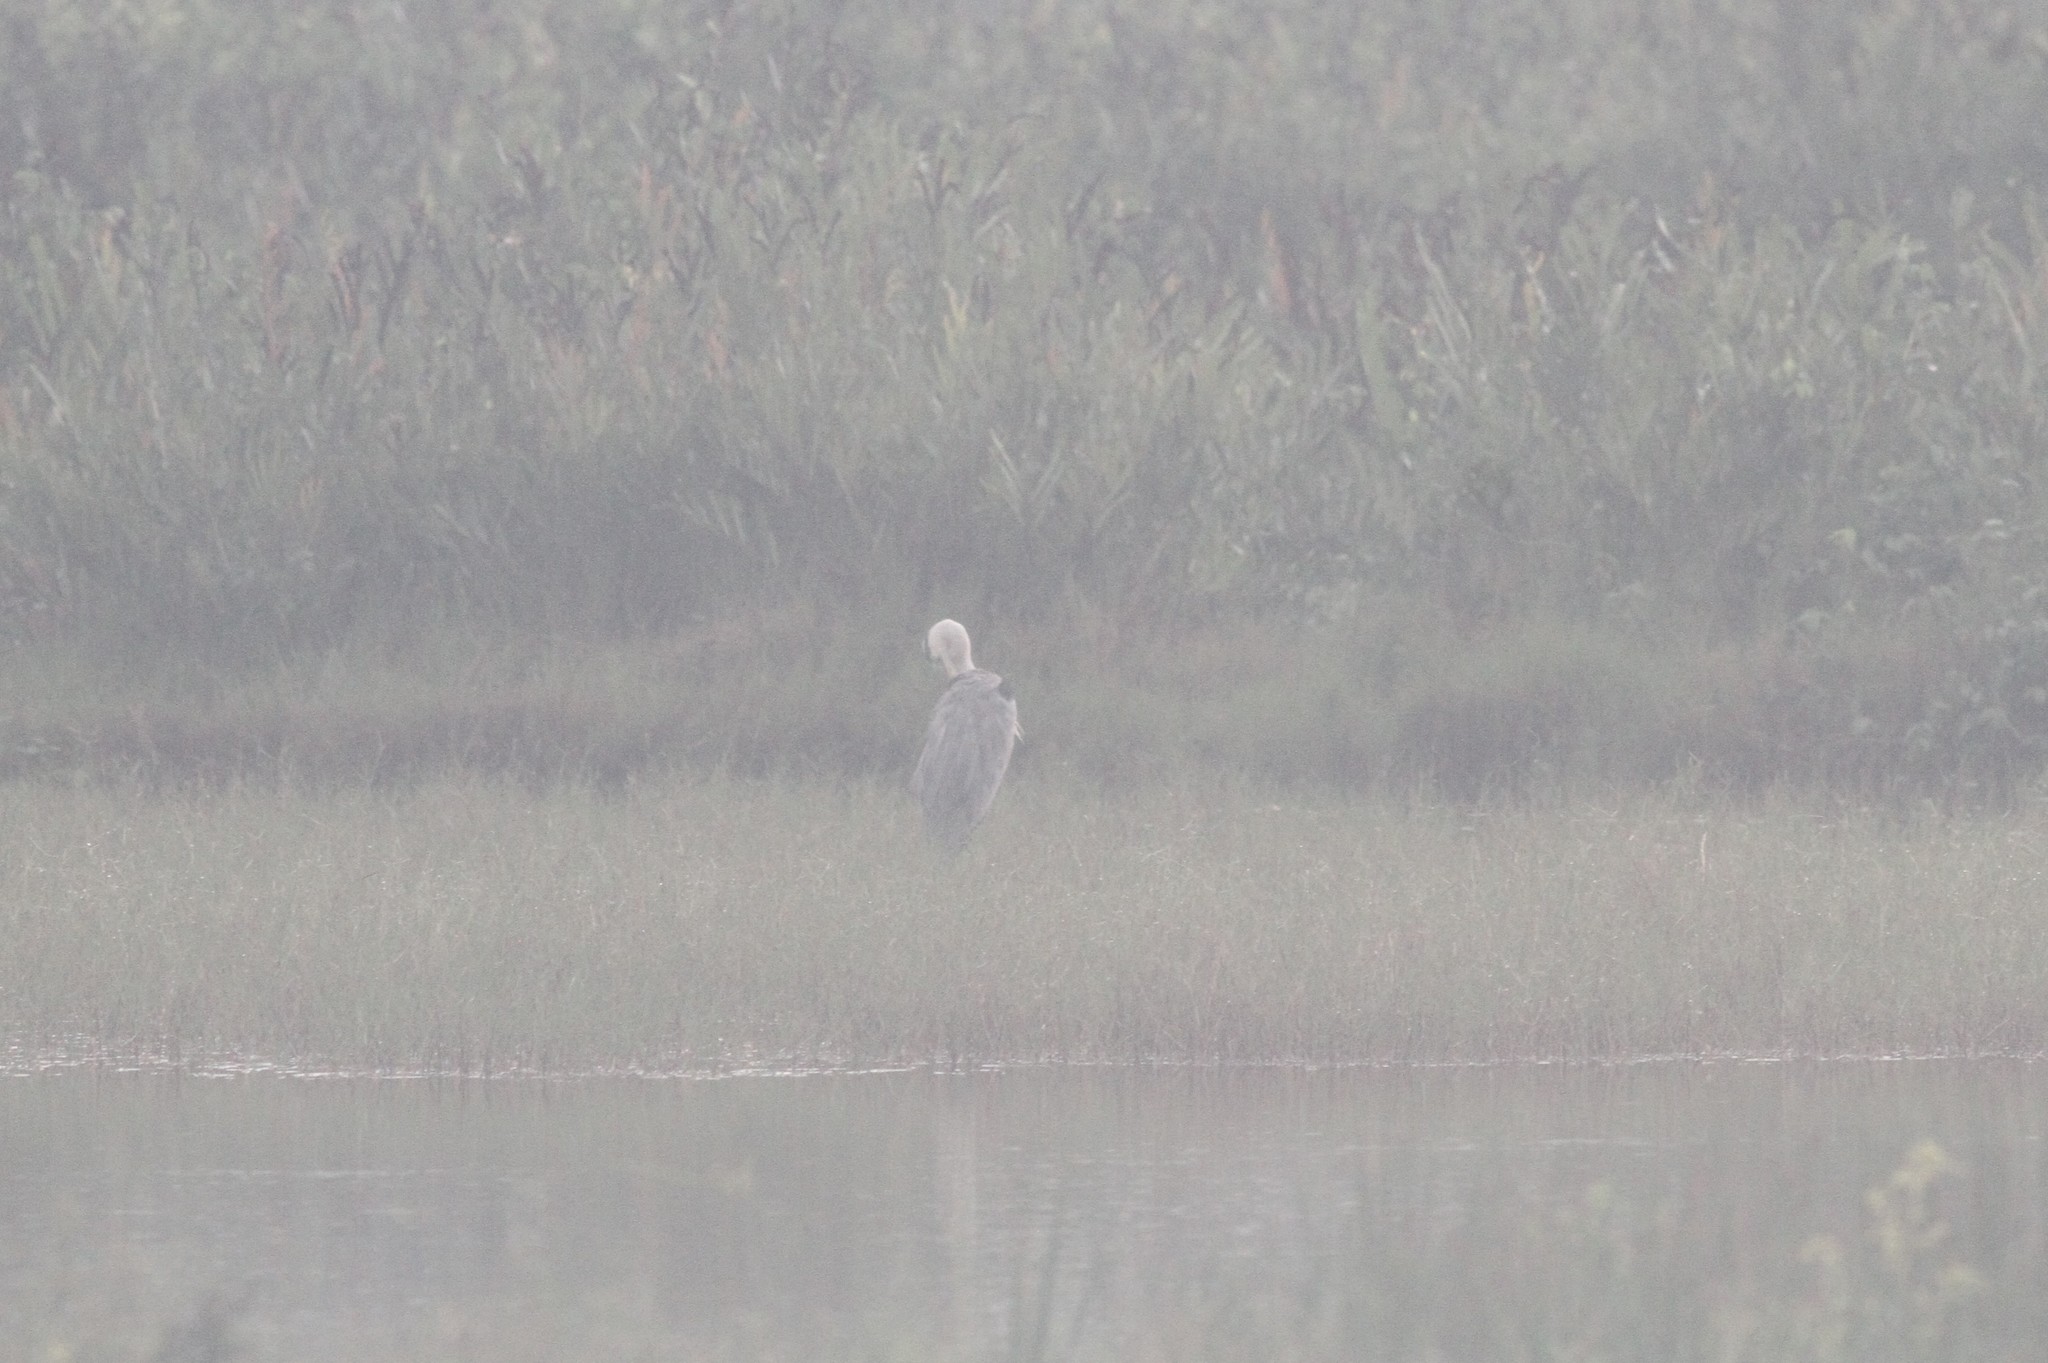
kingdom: Animalia
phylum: Chordata
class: Aves
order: Pelecaniformes
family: Ardeidae
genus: Ardea
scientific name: Ardea cinerea
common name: Grey heron
